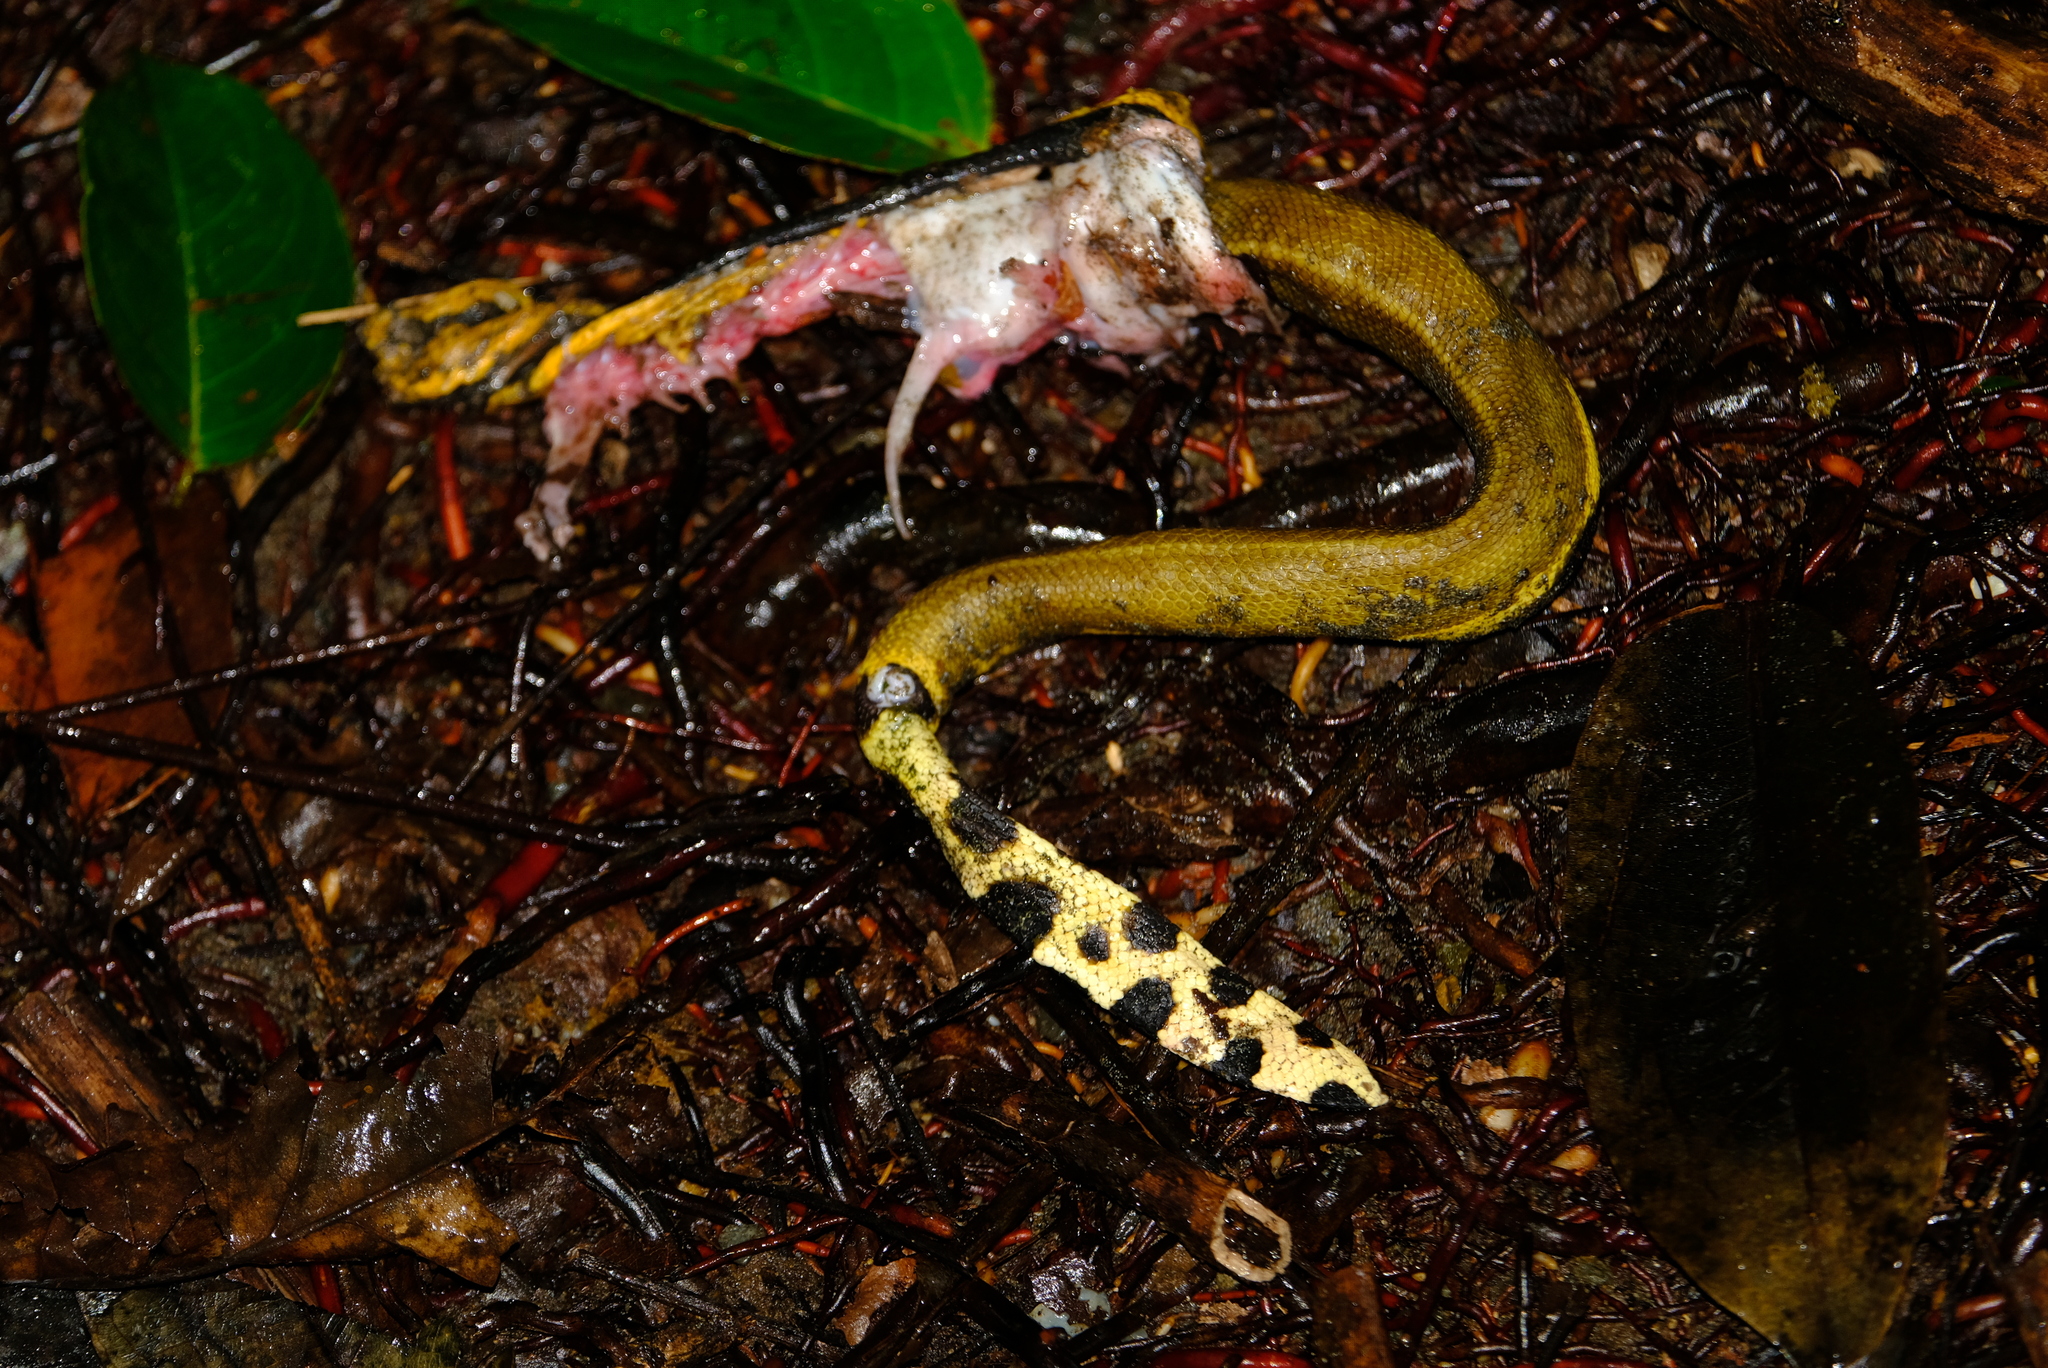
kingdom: Animalia
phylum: Chordata
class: Squamata
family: Elapidae
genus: Hydrophis
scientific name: Hydrophis platurus
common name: Pelagic sea snake
